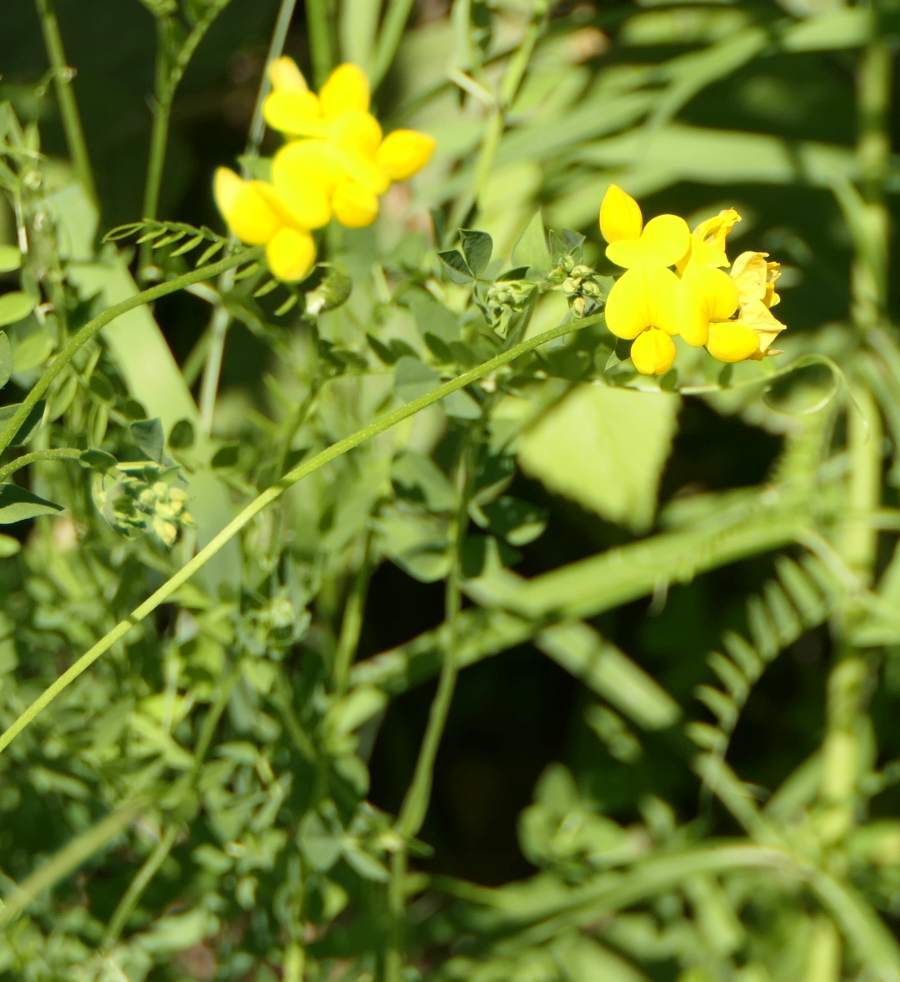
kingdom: Plantae
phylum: Tracheophyta
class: Magnoliopsida
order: Fabales
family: Fabaceae
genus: Lotus
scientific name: Lotus corniculatus
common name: Common bird's-foot-trefoil
